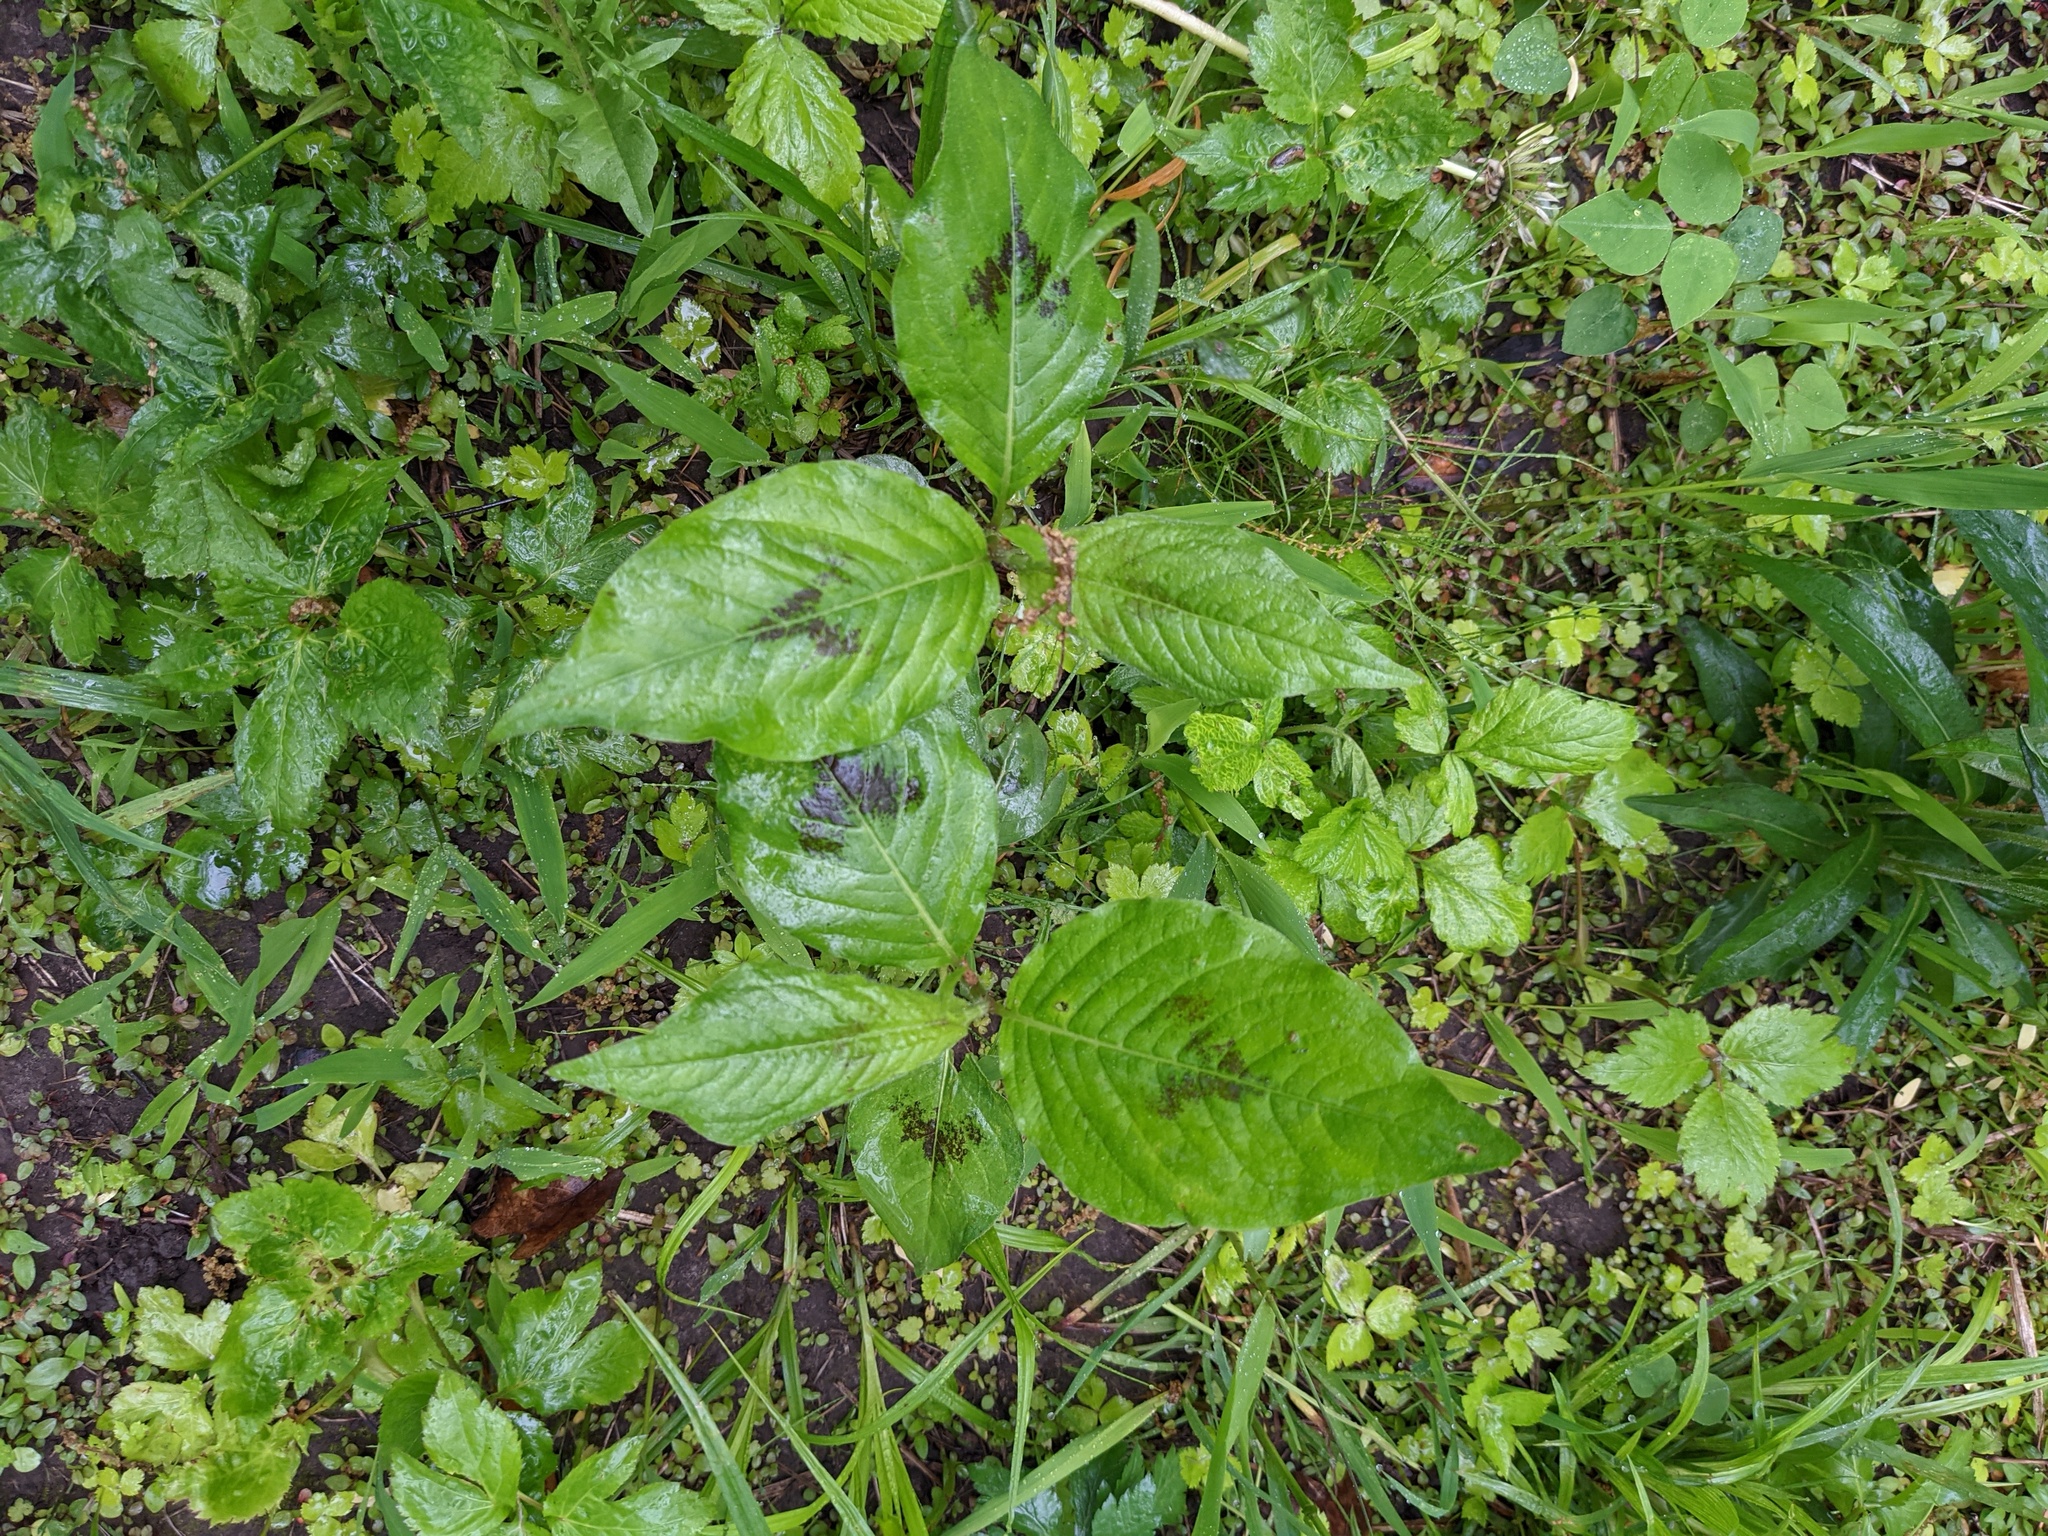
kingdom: Plantae
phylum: Tracheophyta
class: Magnoliopsida
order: Caryophyllales
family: Polygonaceae
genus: Persicaria
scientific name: Persicaria virginiana
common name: Jumpseed
